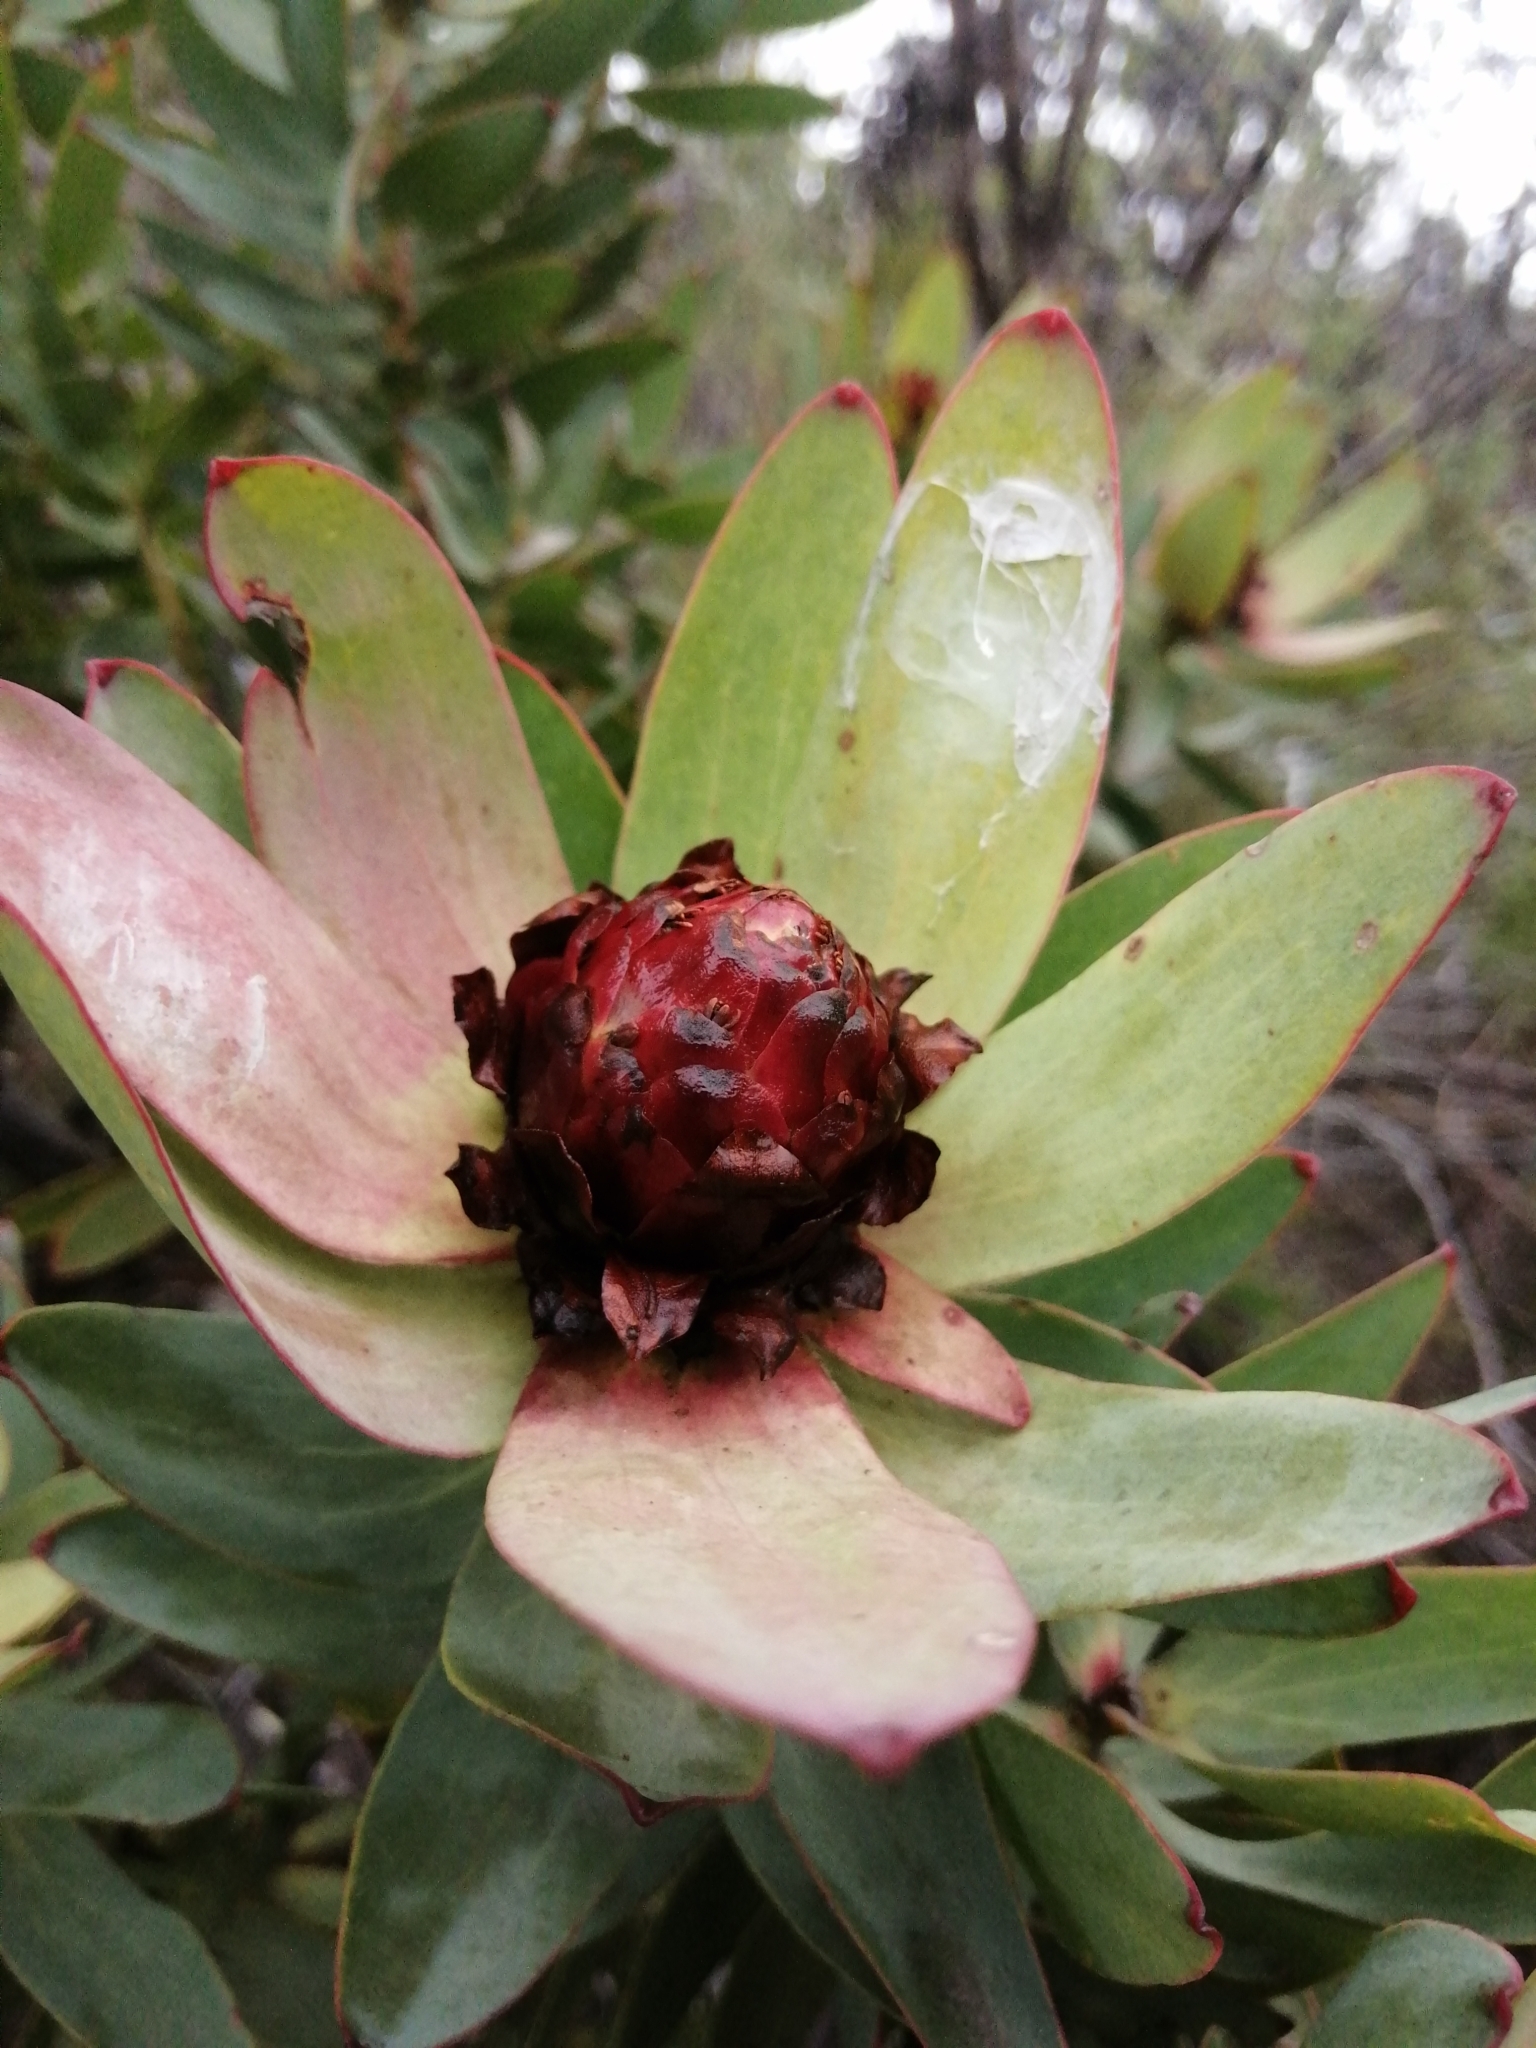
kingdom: Plantae
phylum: Tracheophyta
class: Magnoliopsida
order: Proteales
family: Proteaceae
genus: Leucadendron
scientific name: Leucadendron tinctum
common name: Spicy conebush
